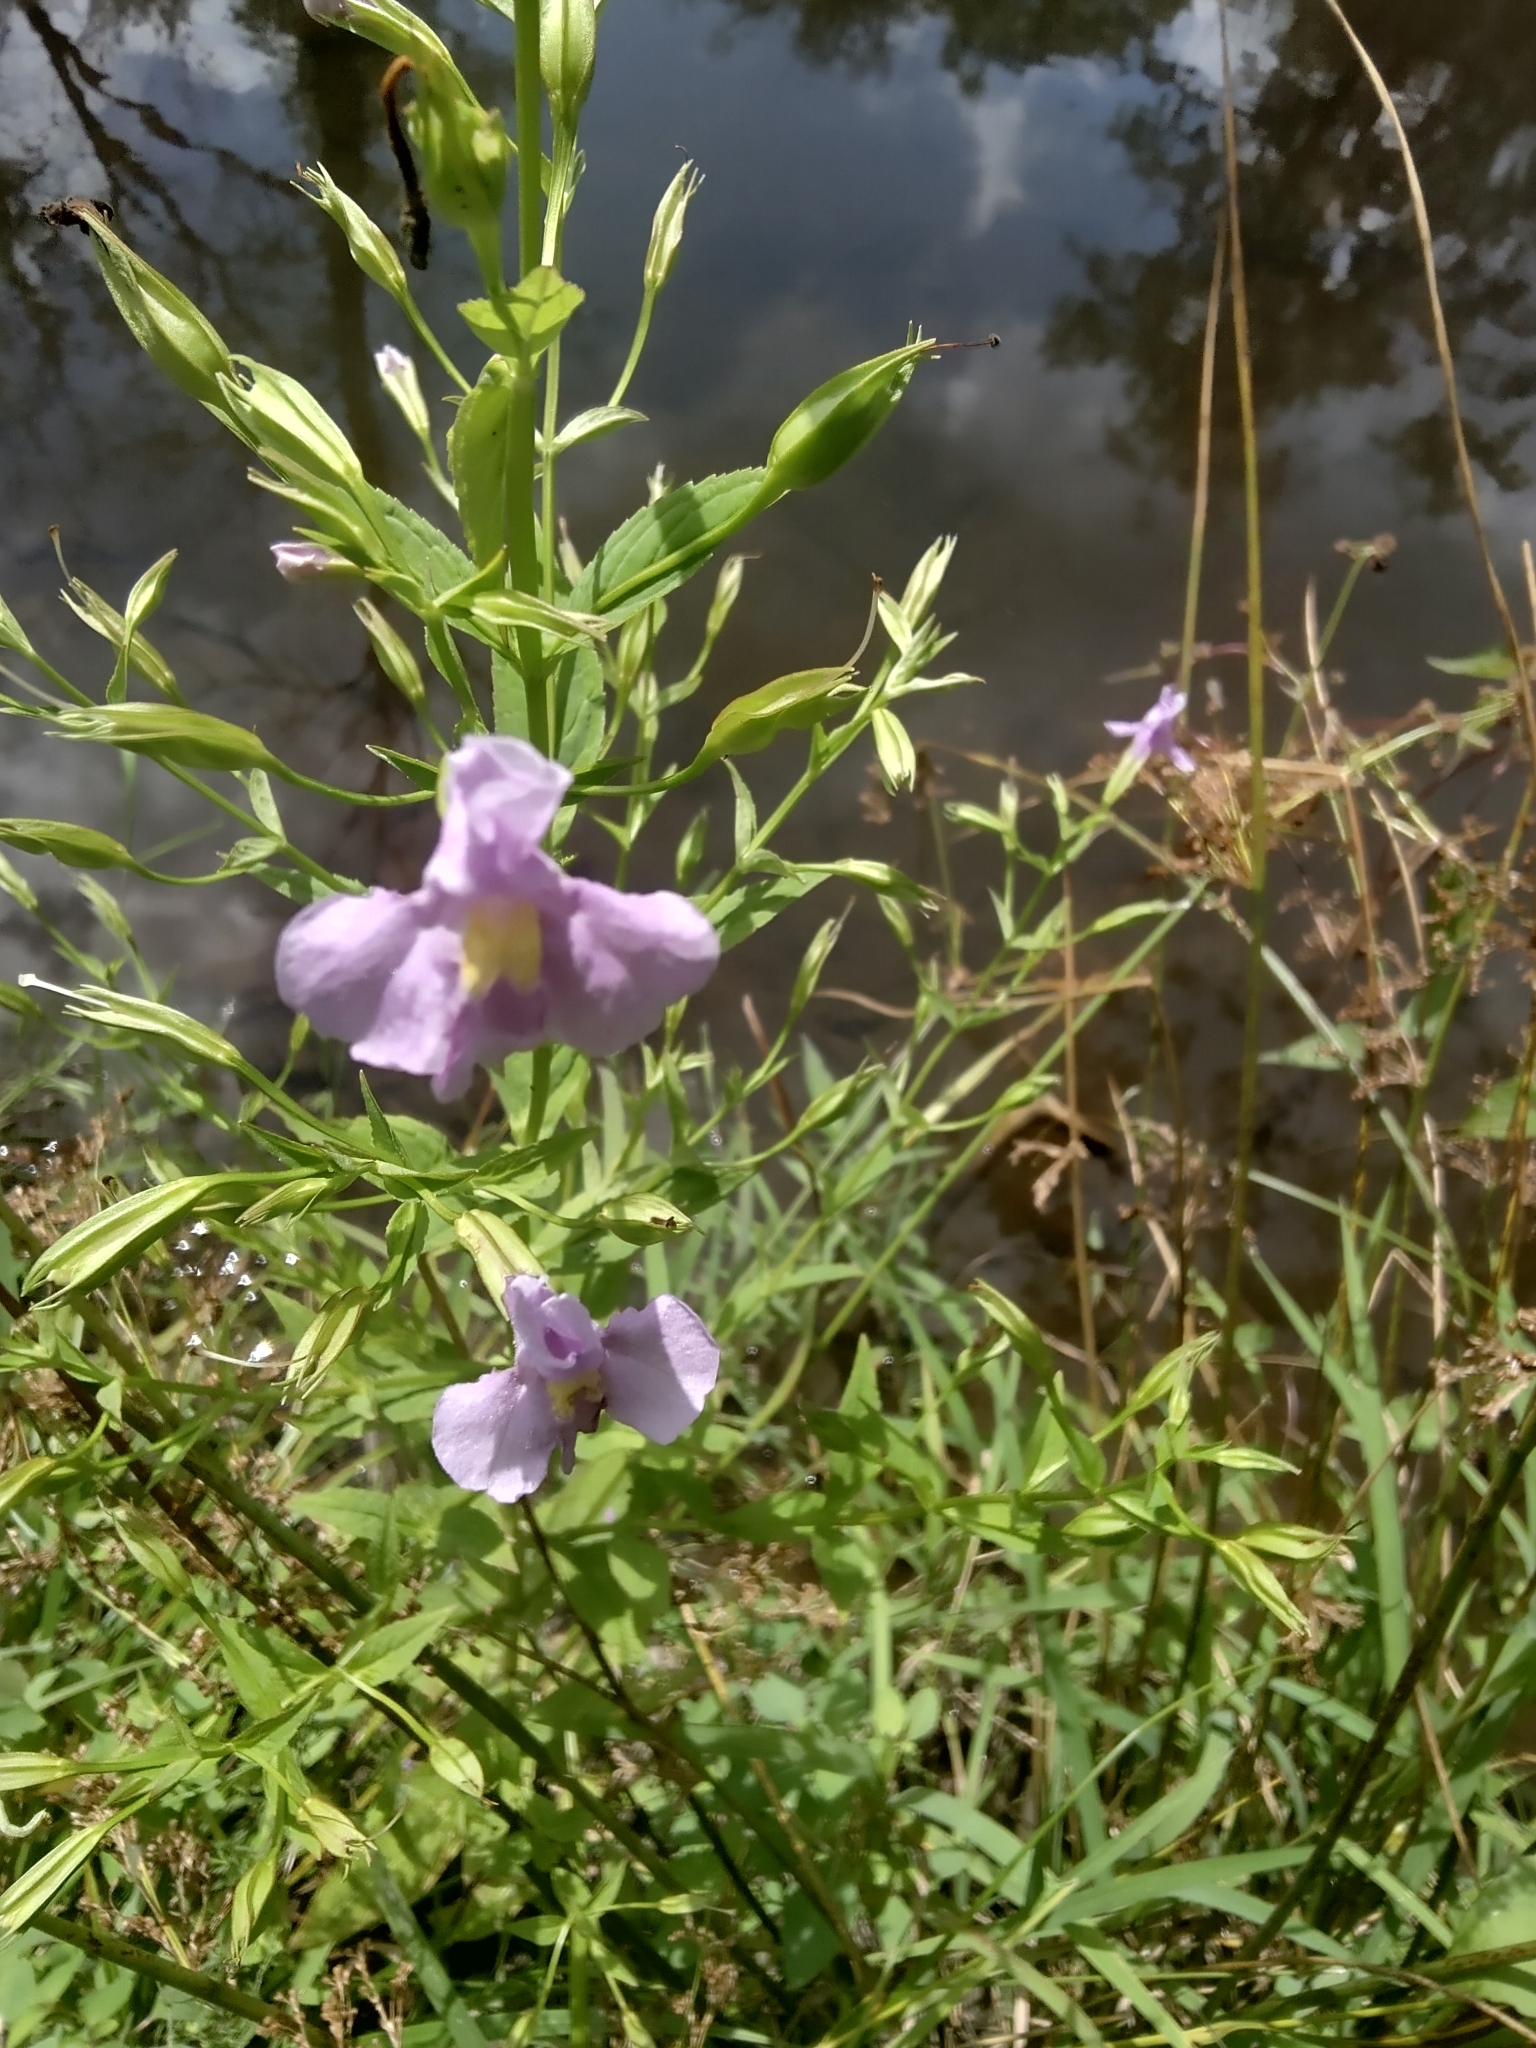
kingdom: Plantae
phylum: Tracheophyta
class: Magnoliopsida
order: Lamiales
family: Phrymaceae
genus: Mimulus
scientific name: Mimulus ringens
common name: Allegheny monkeyflower
